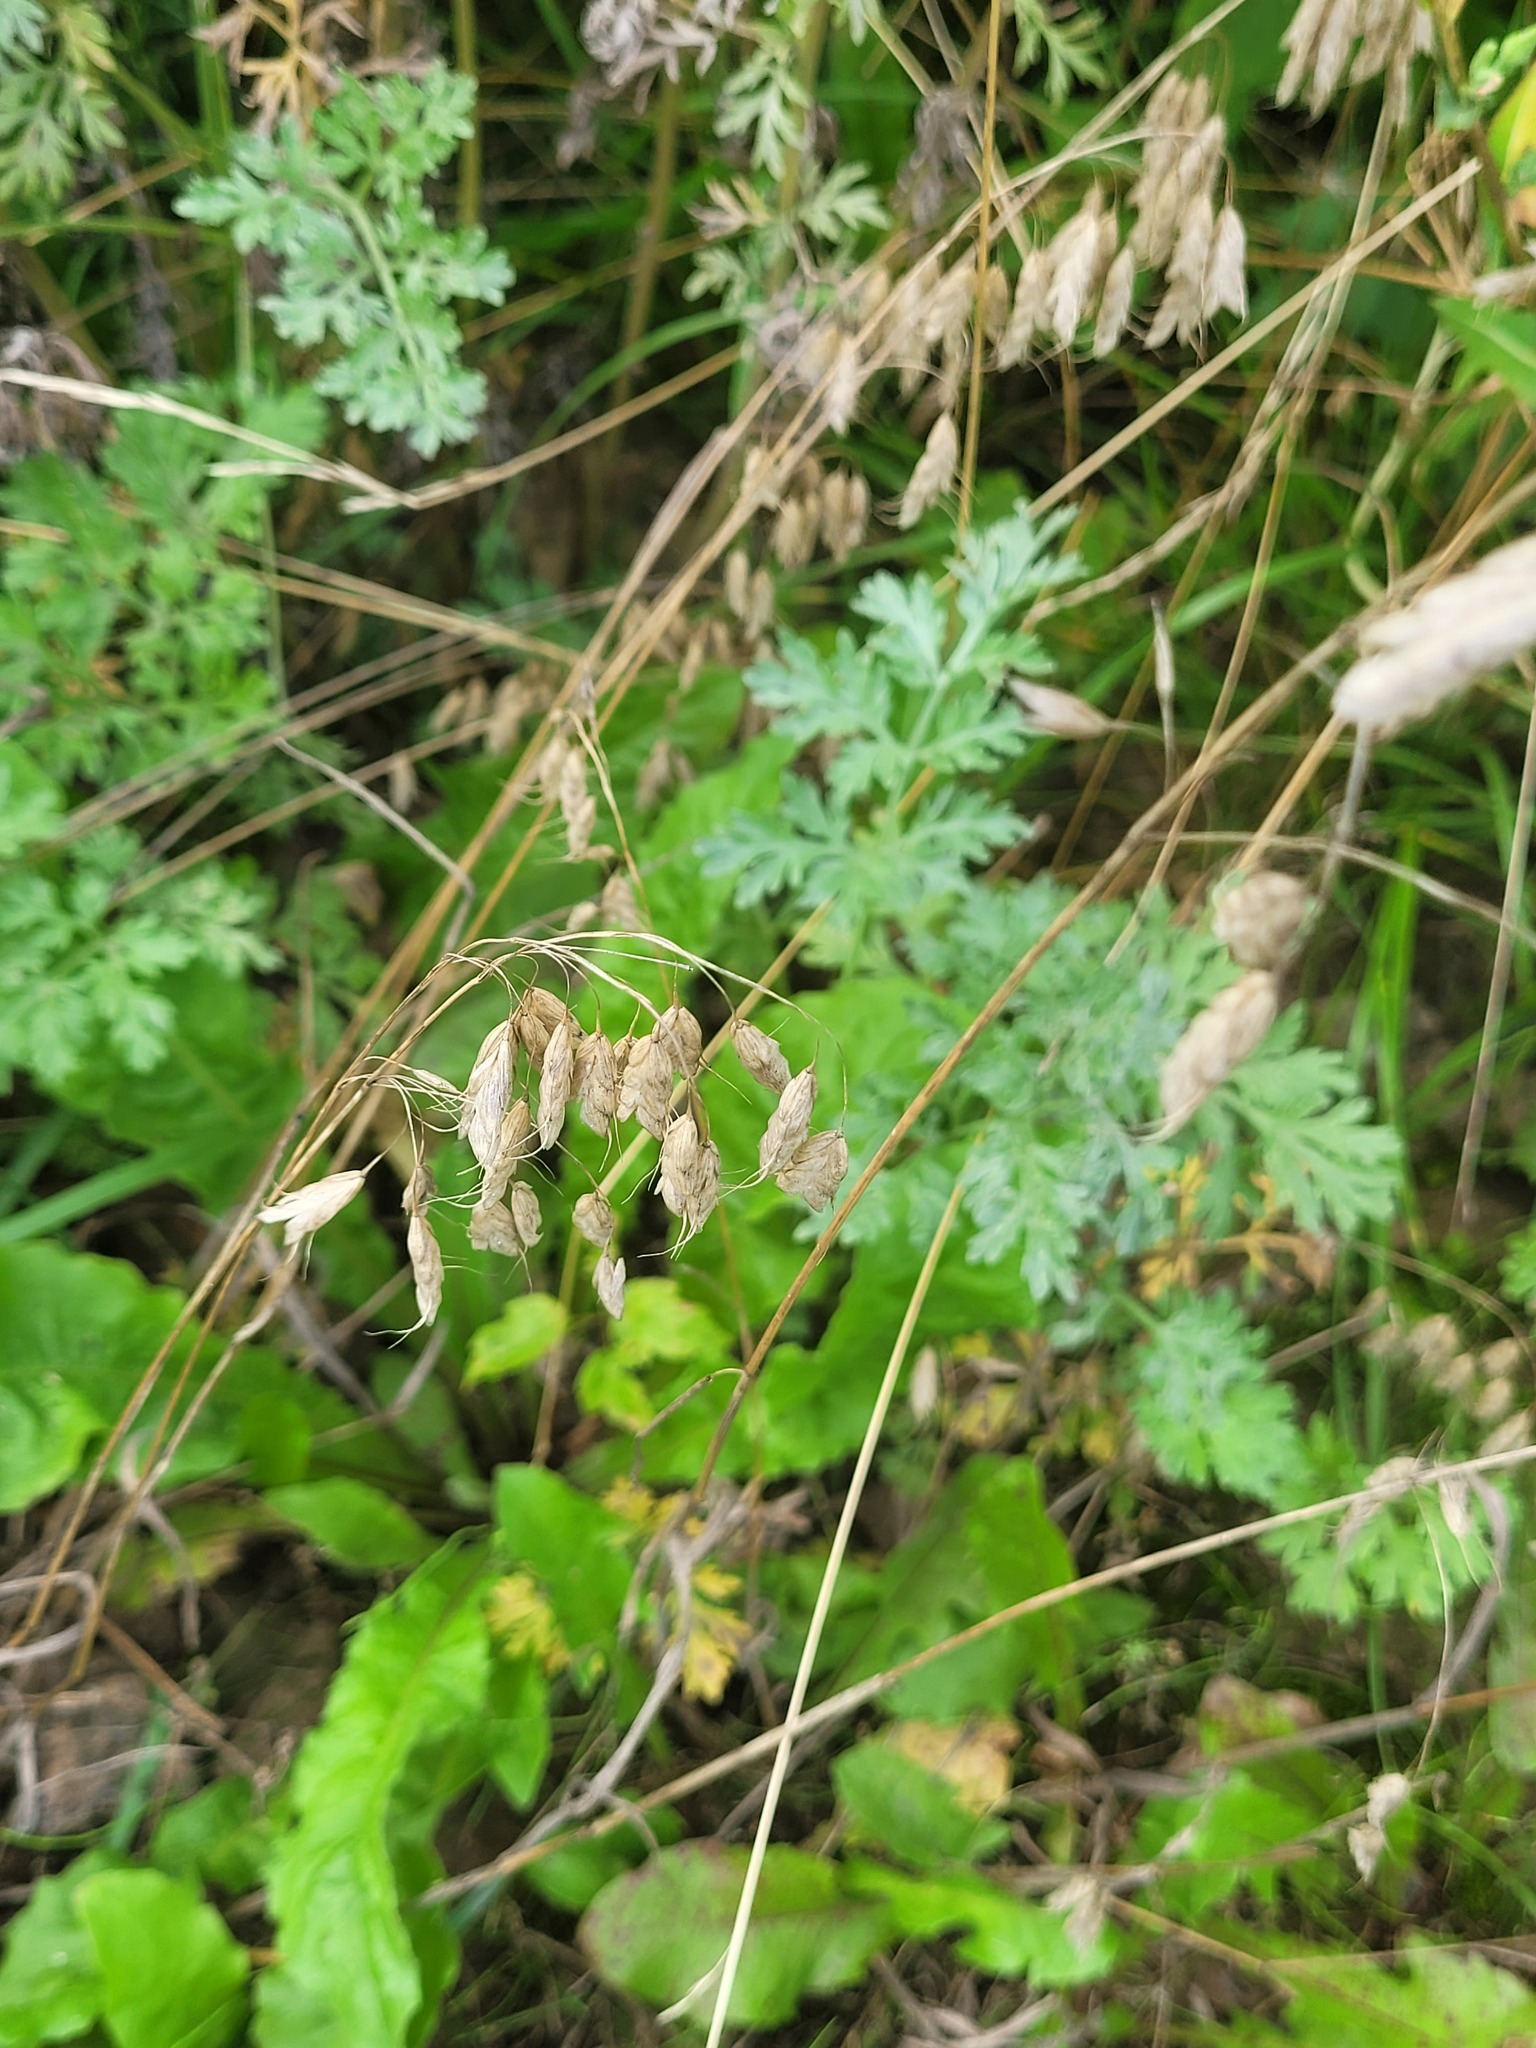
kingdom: Plantae
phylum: Tracheophyta
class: Liliopsida
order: Poales
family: Poaceae
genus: Bromus
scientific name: Bromus squarrosus
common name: Corn brome
